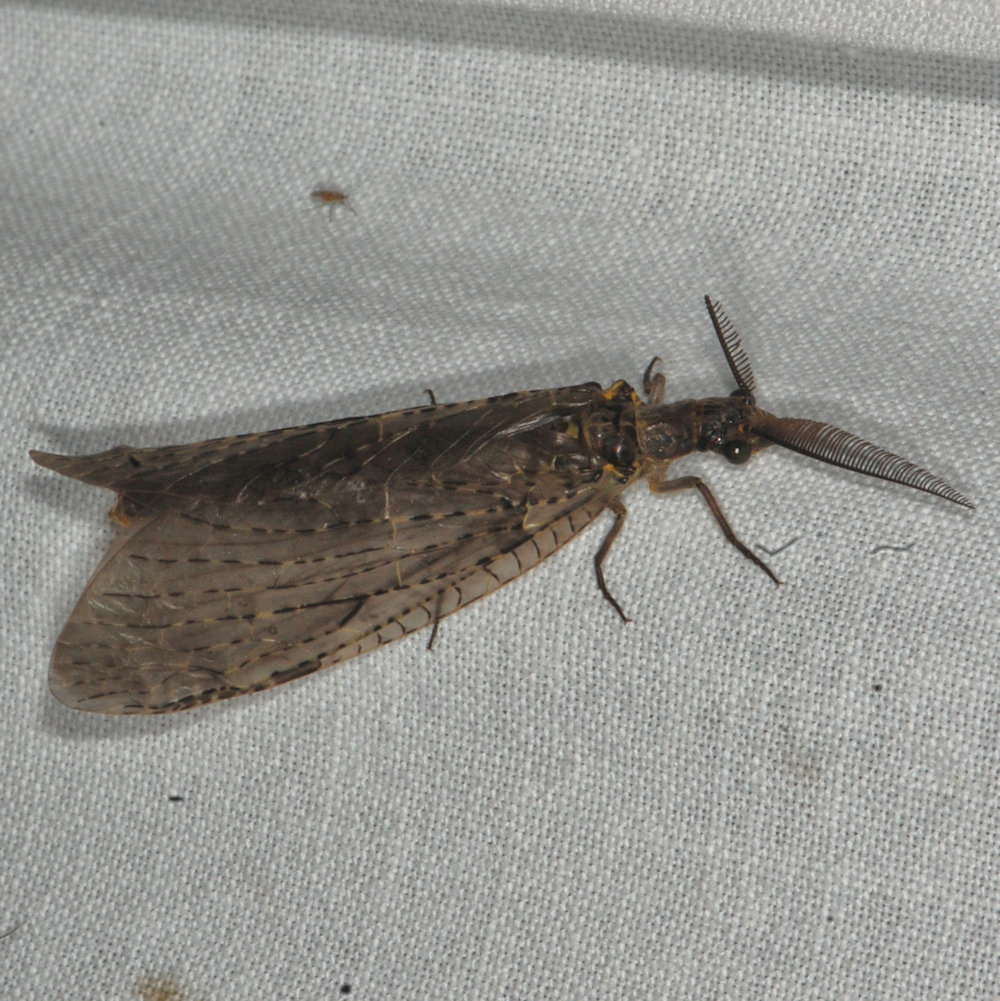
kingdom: Animalia
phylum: Arthropoda
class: Insecta
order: Megaloptera
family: Corydalidae
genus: Chauliodes
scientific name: Chauliodes rastricornis
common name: Spring fishfly
